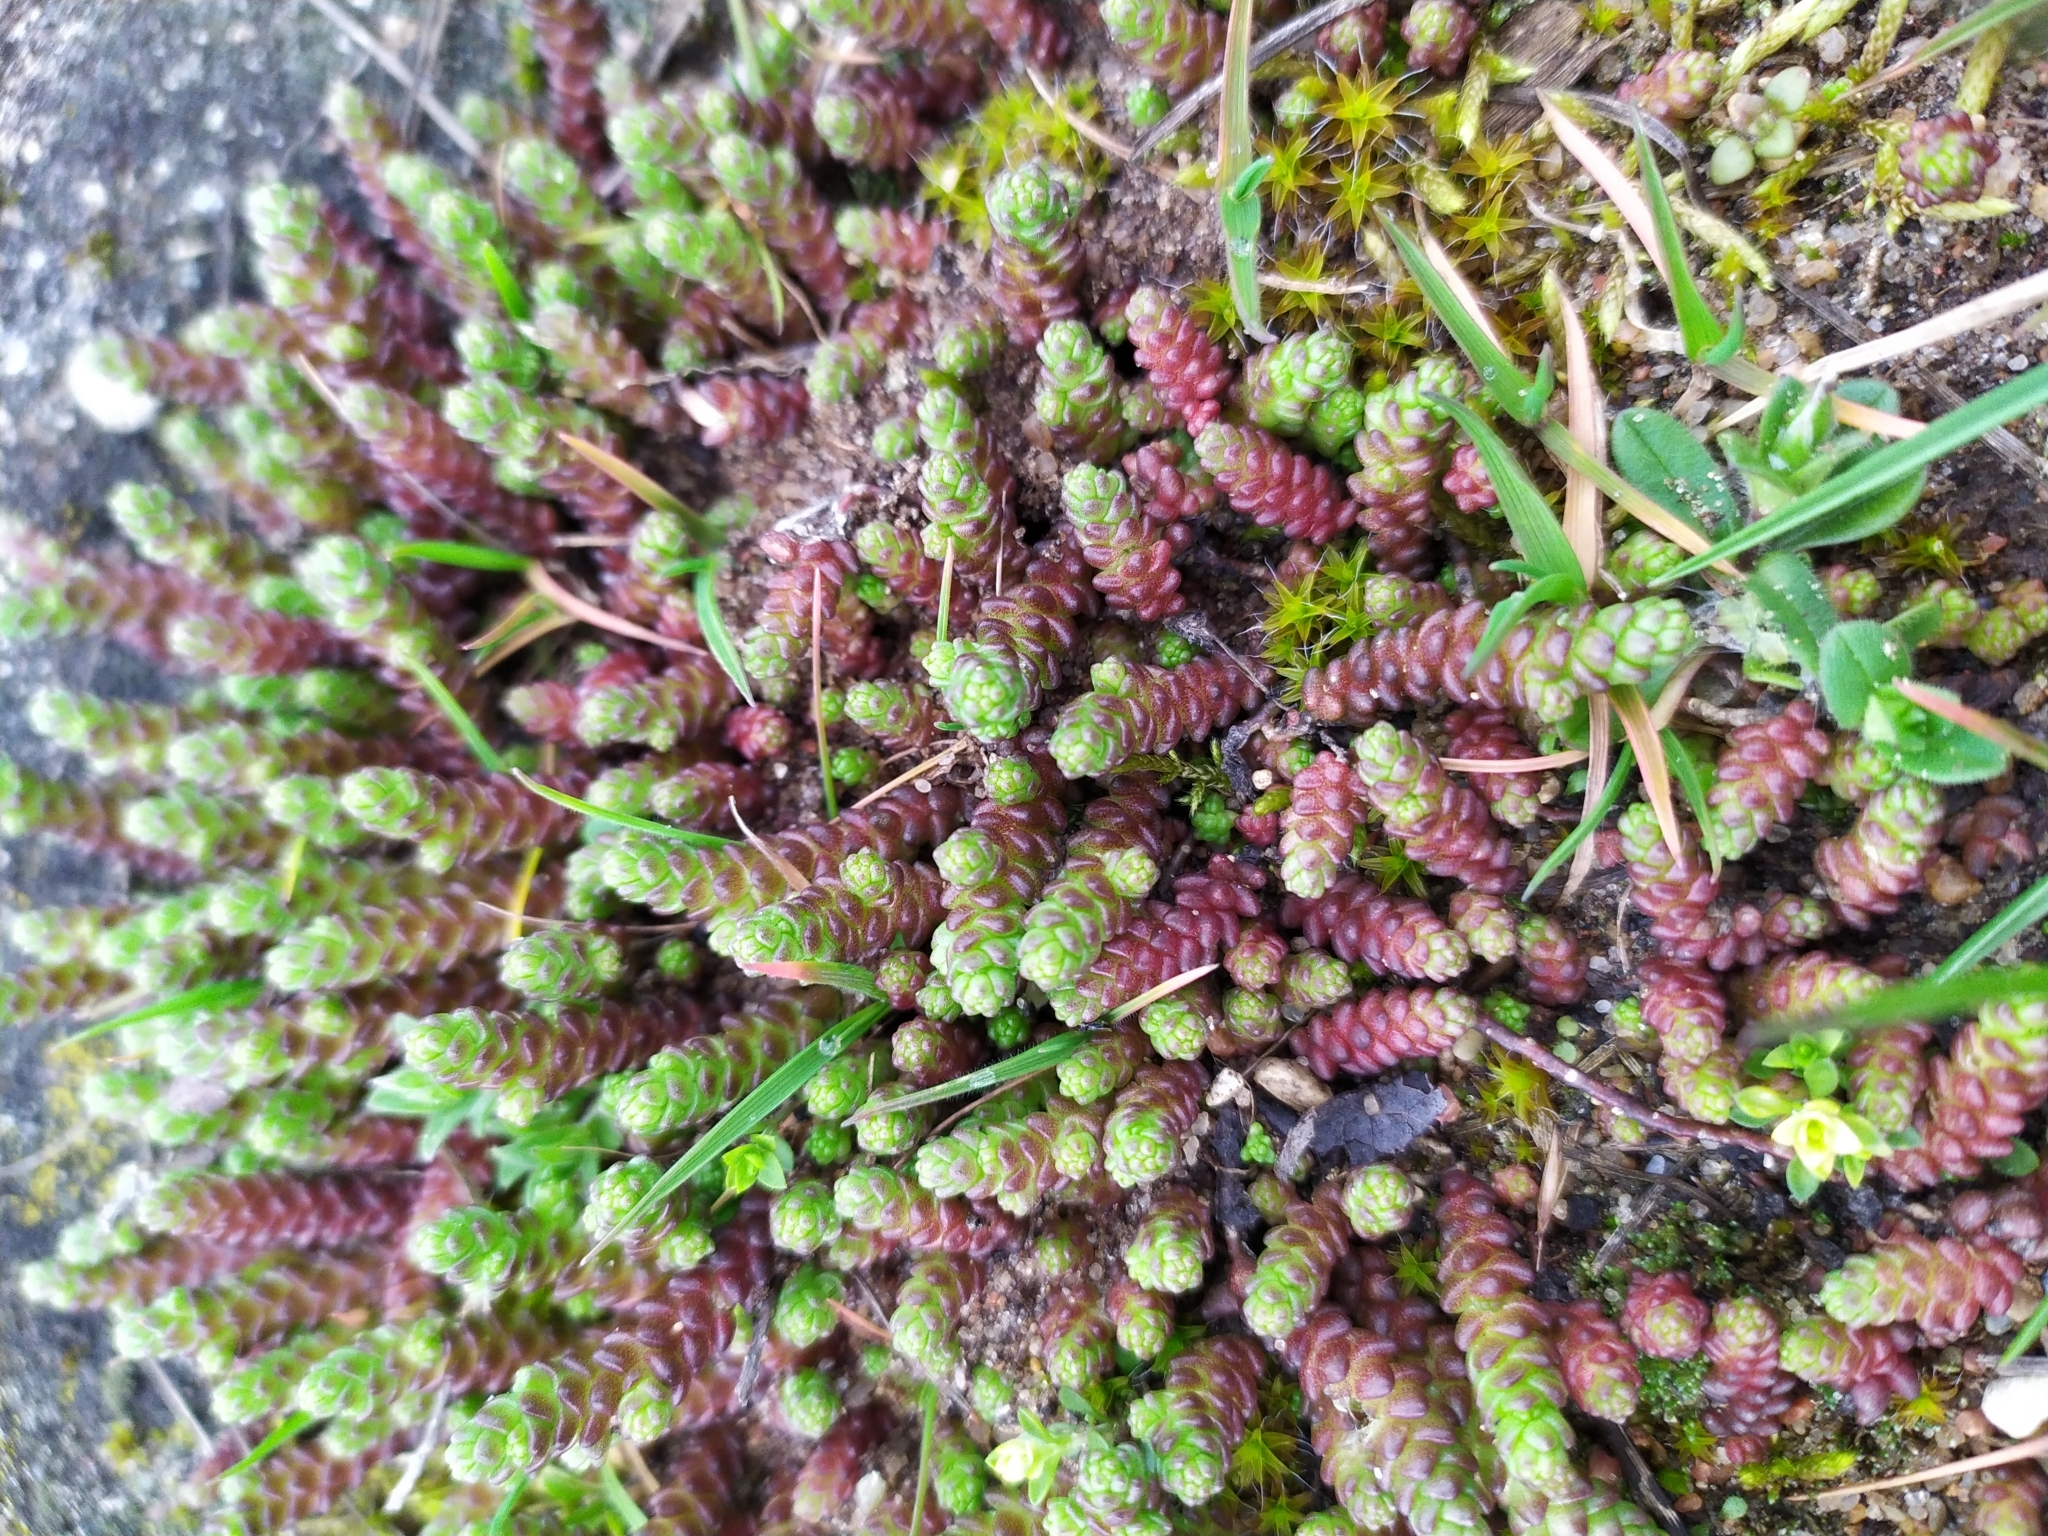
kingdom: Plantae
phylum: Tracheophyta
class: Magnoliopsida
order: Saxifragales
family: Crassulaceae
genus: Sedum
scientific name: Sedum acre
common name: Biting stonecrop
